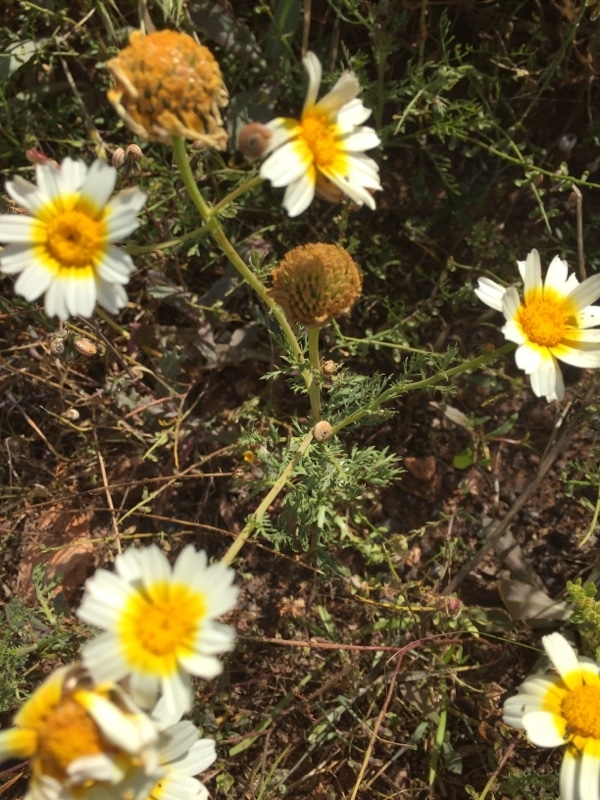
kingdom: Plantae
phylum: Tracheophyta
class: Magnoliopsida
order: Asterales
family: Asteraceae
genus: Glebionis
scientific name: Glebionis coronaria
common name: Crowndaisy
